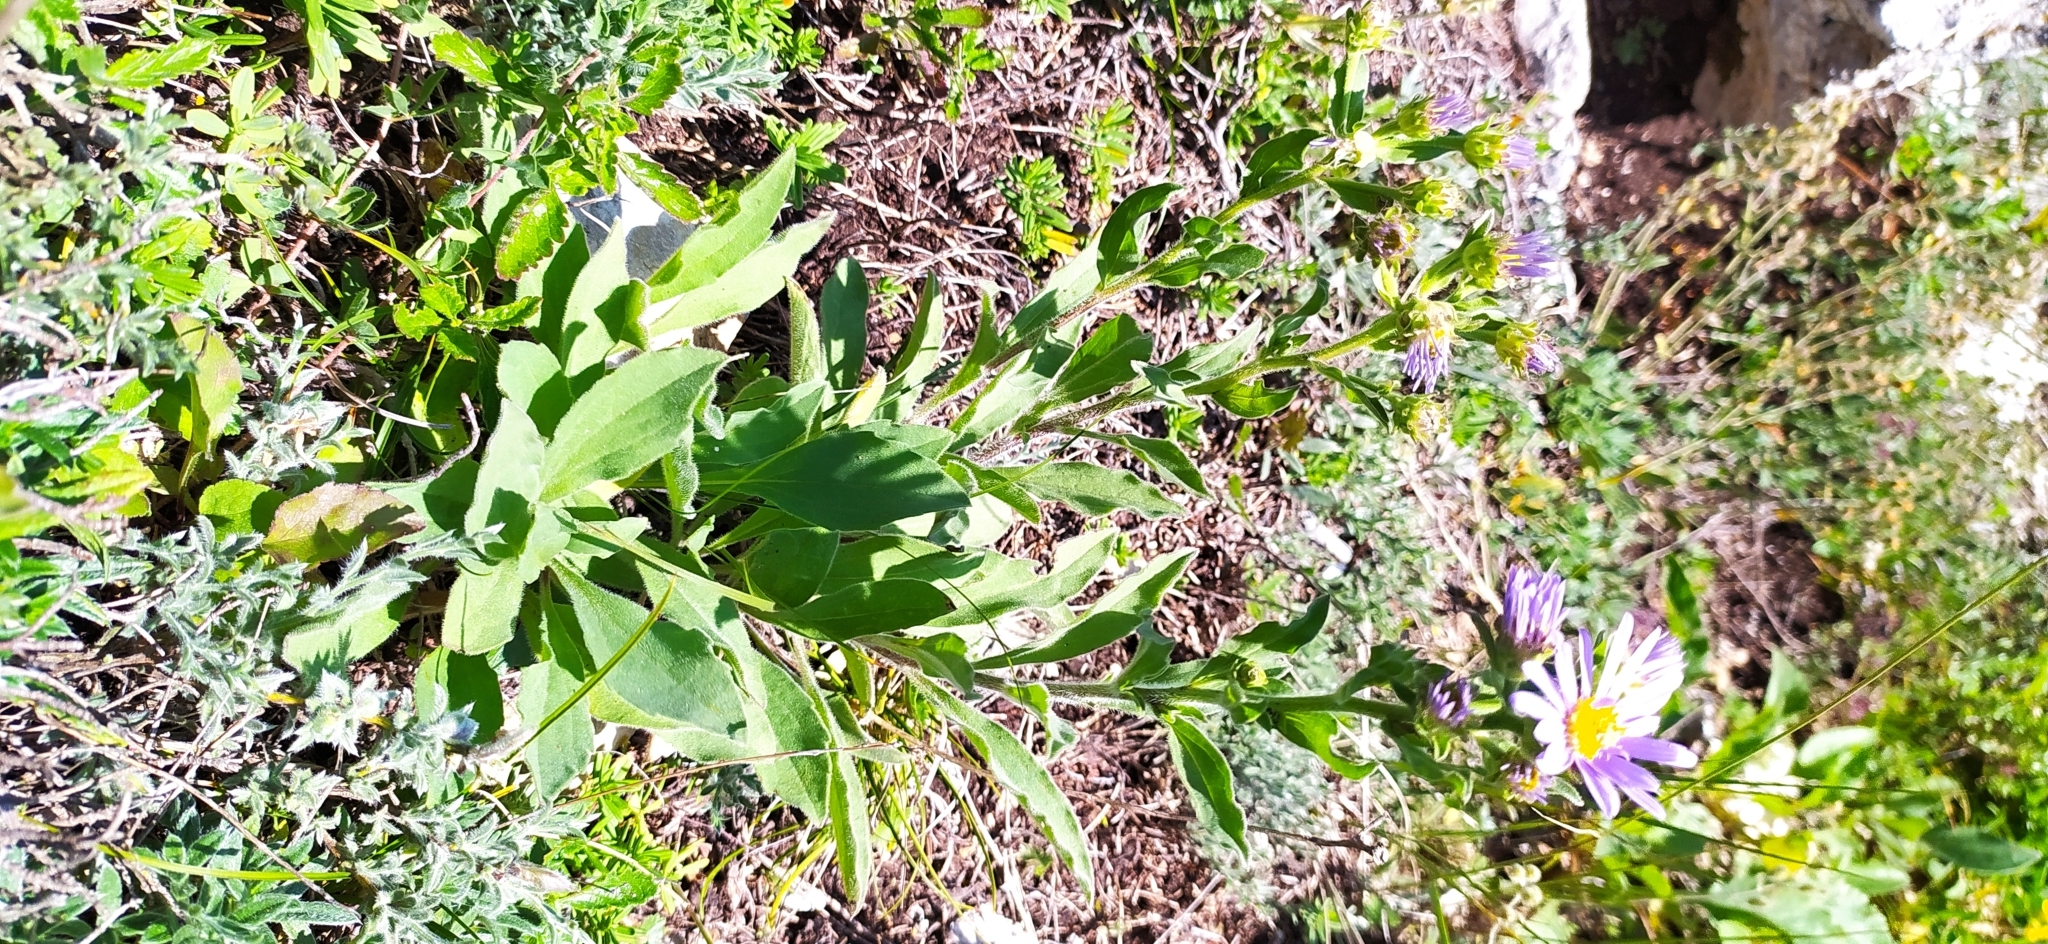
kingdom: Plantae
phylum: Tracheophyta
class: Magnoliopsida
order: Asterales
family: Asteraceae
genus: Aster
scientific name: Aster amellus
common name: European michaelmas daisy
